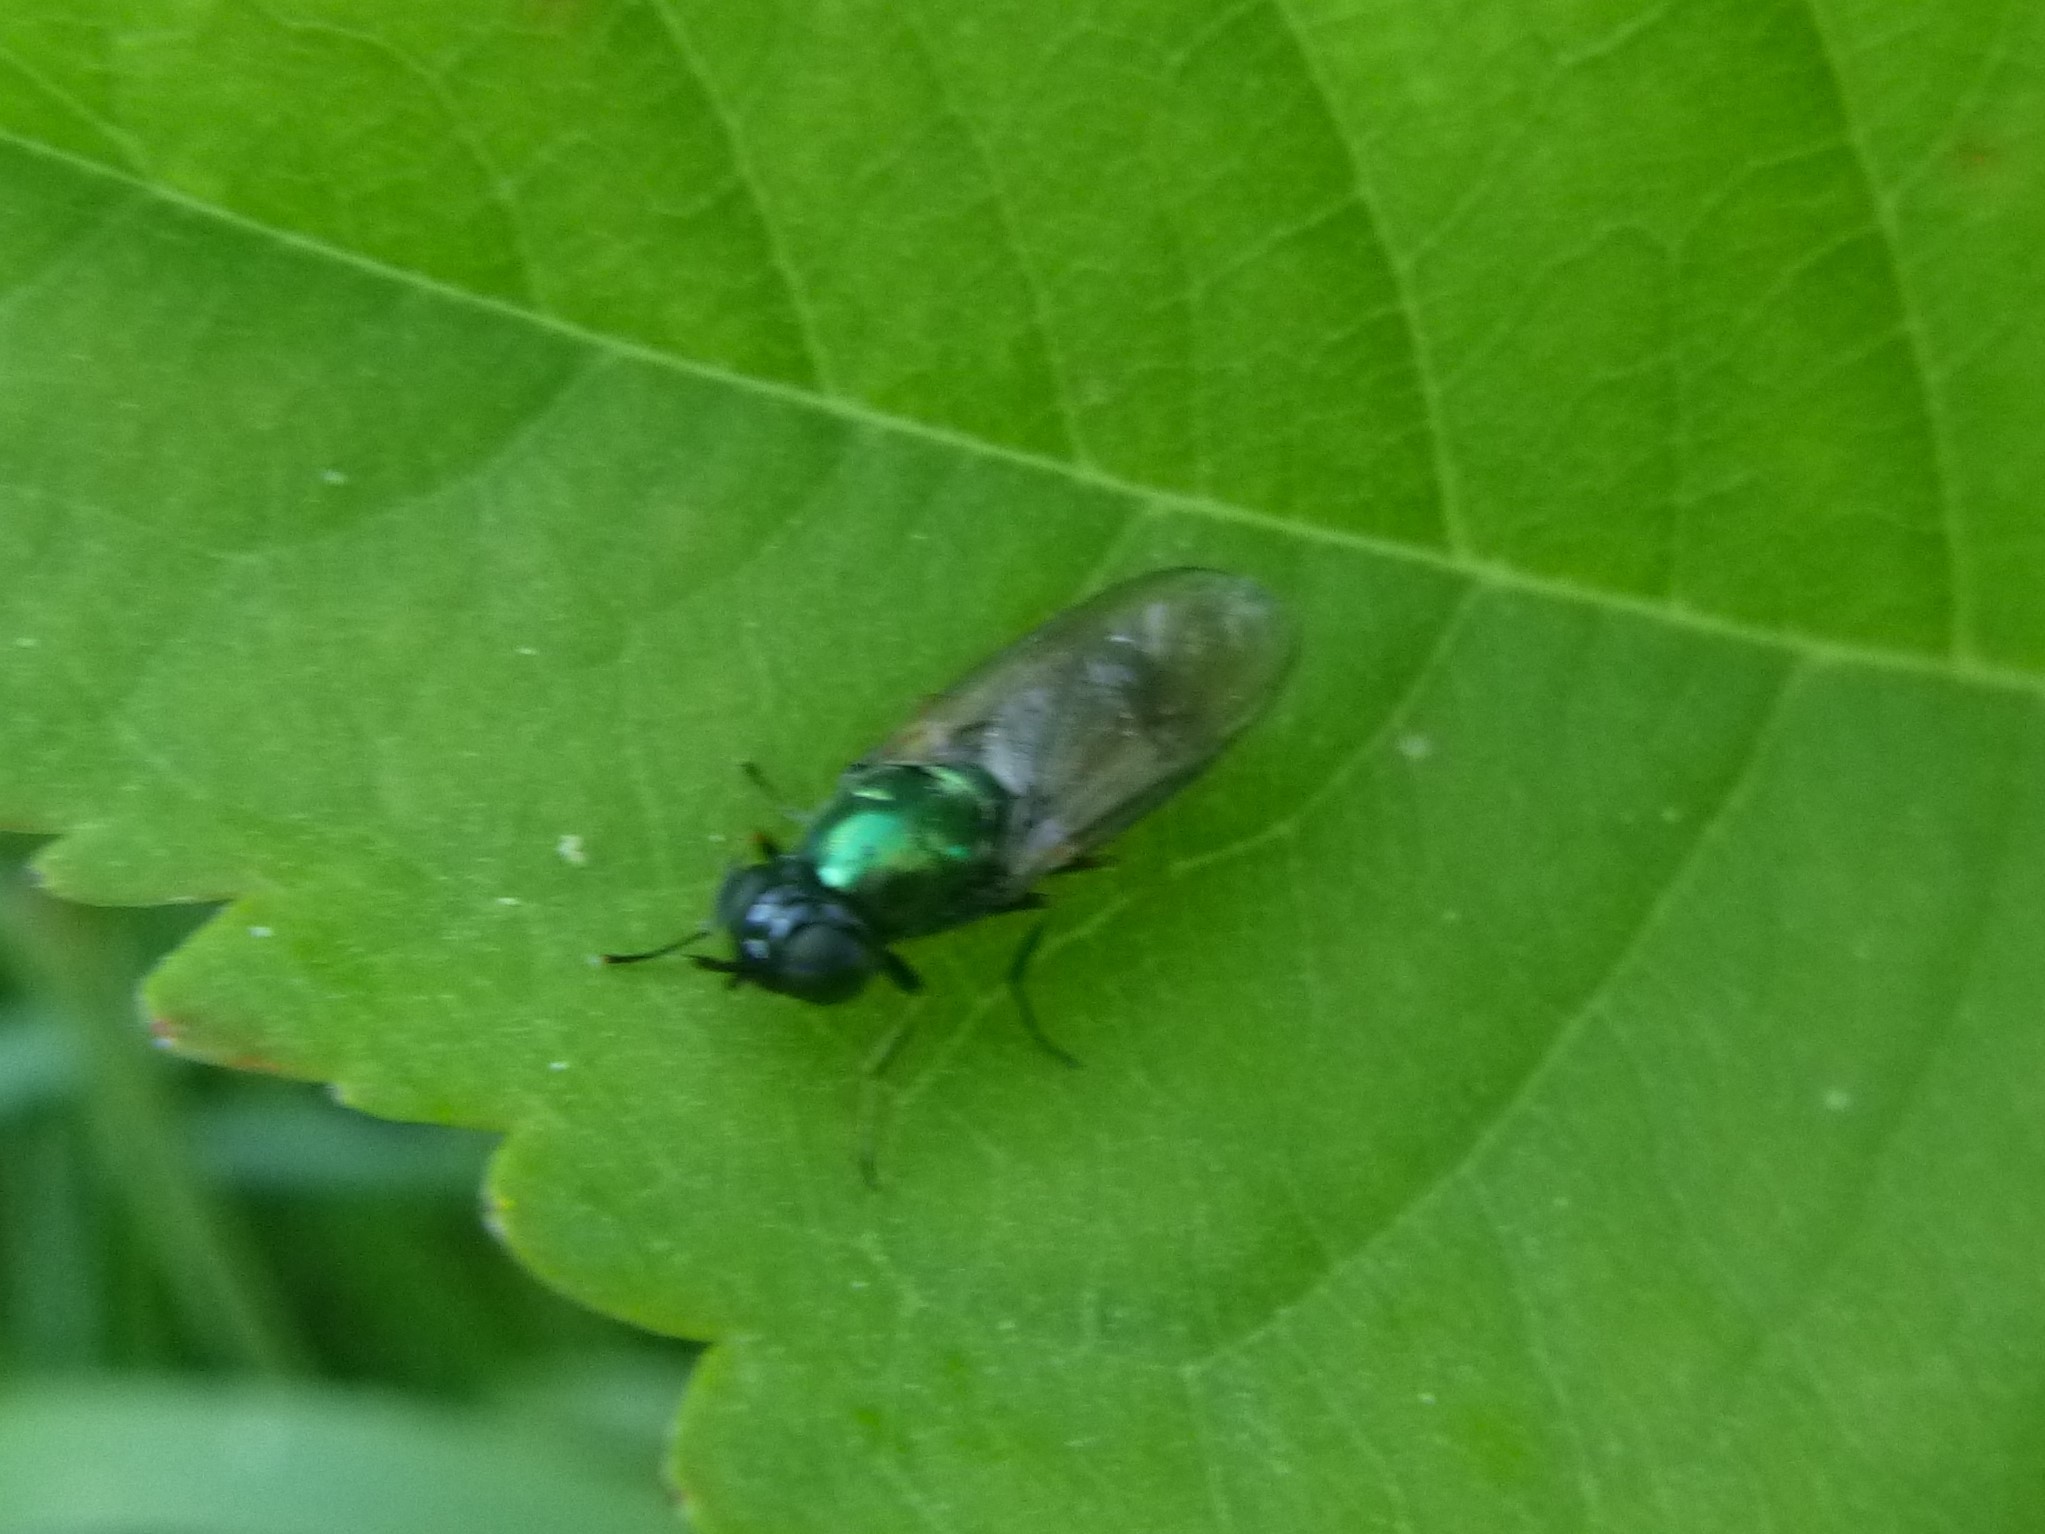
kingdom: Animalia
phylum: Arthropoda
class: Insecta
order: Diptera
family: Stratiomyidae
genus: Chloromyia
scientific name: Chloromyia formosa
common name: Soldier fly
